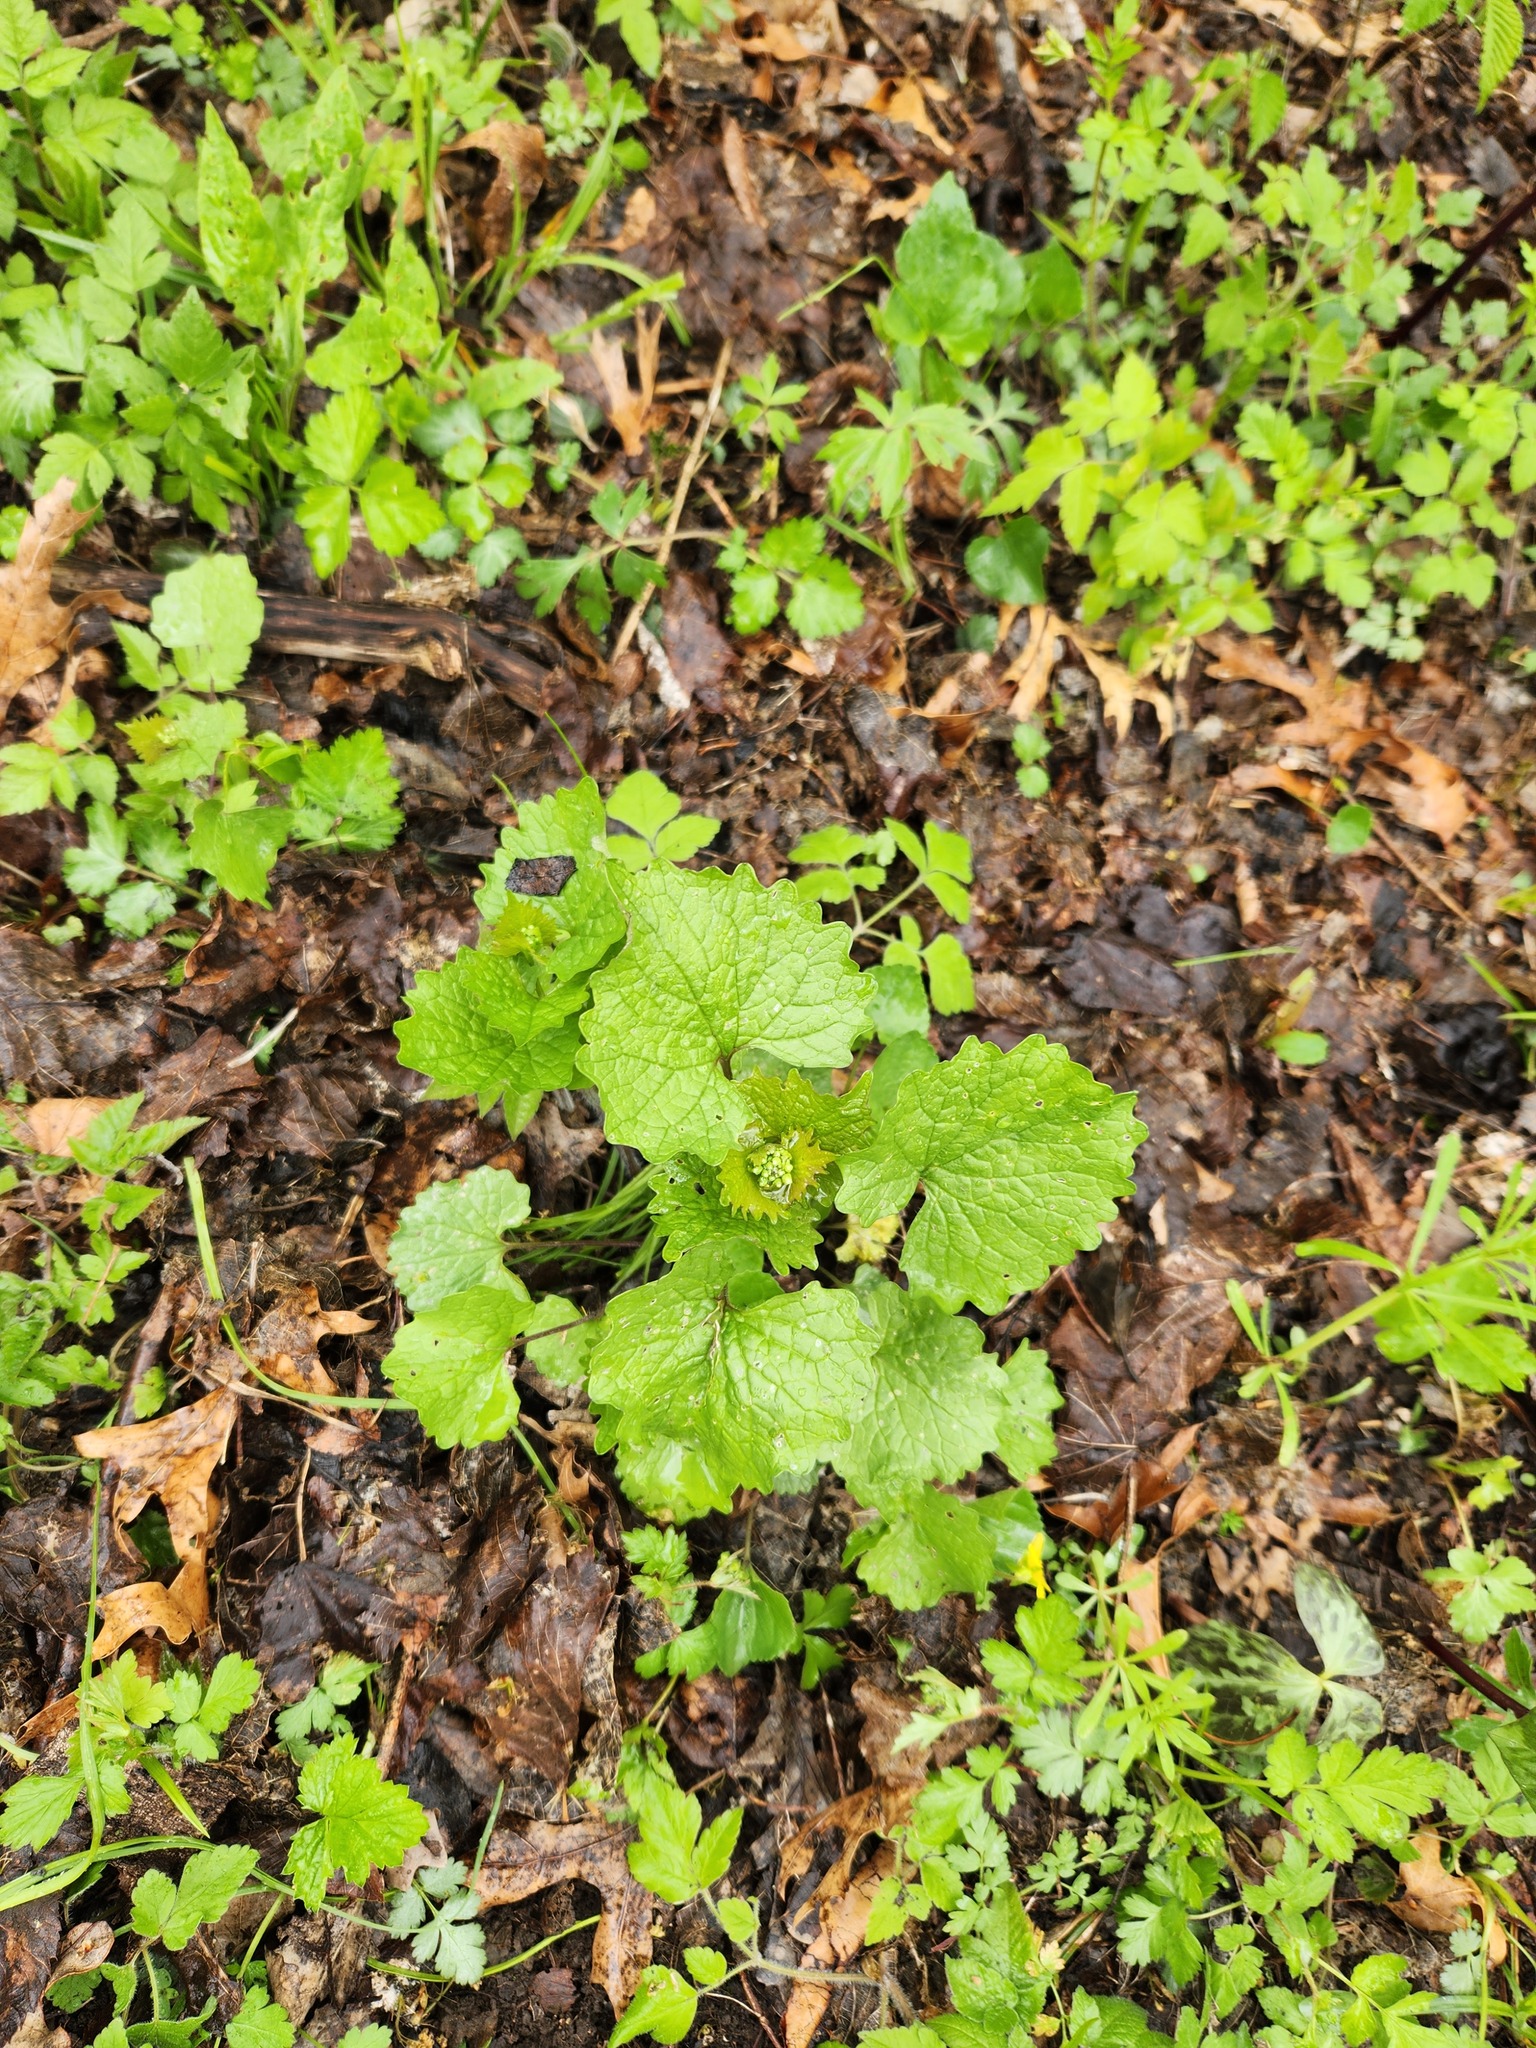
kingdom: Plantae
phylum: Tracheophyta
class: Magnoliopsida
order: Brassicales
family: Brassicaceae
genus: Alliaria
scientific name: Alliaria petiolata
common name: Garlic mustard
